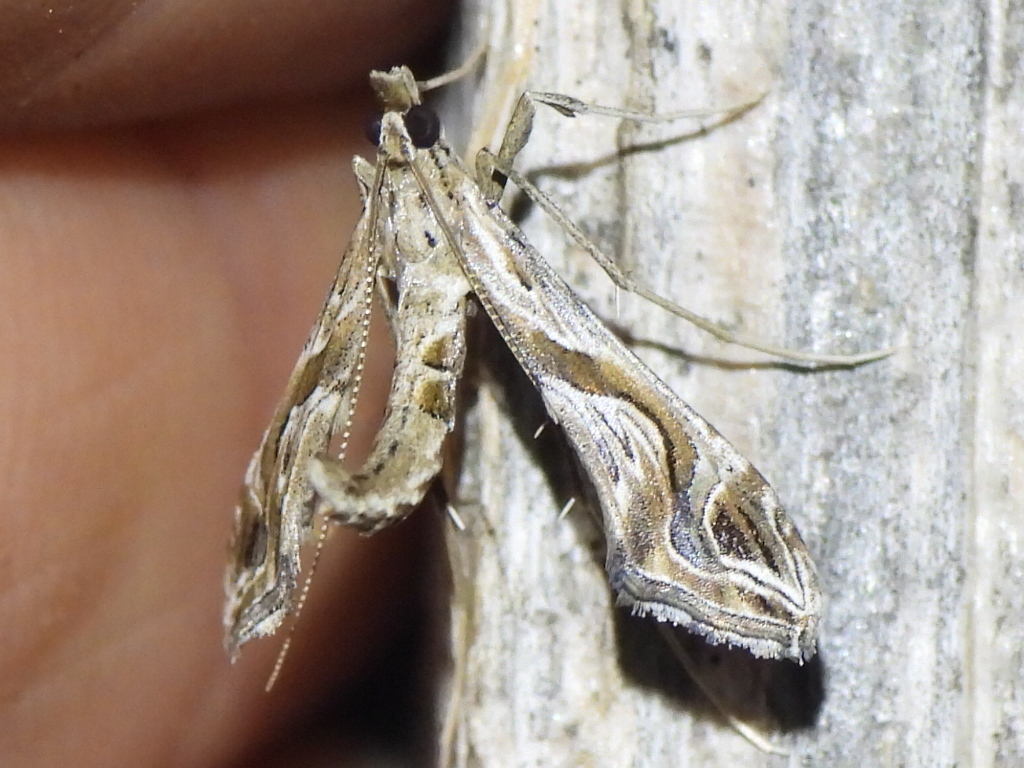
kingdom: Animalia
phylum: Arthropoda
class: Insecta
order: Lepidoptera
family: Crambidae
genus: Lineodes
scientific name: Lineodes integra
